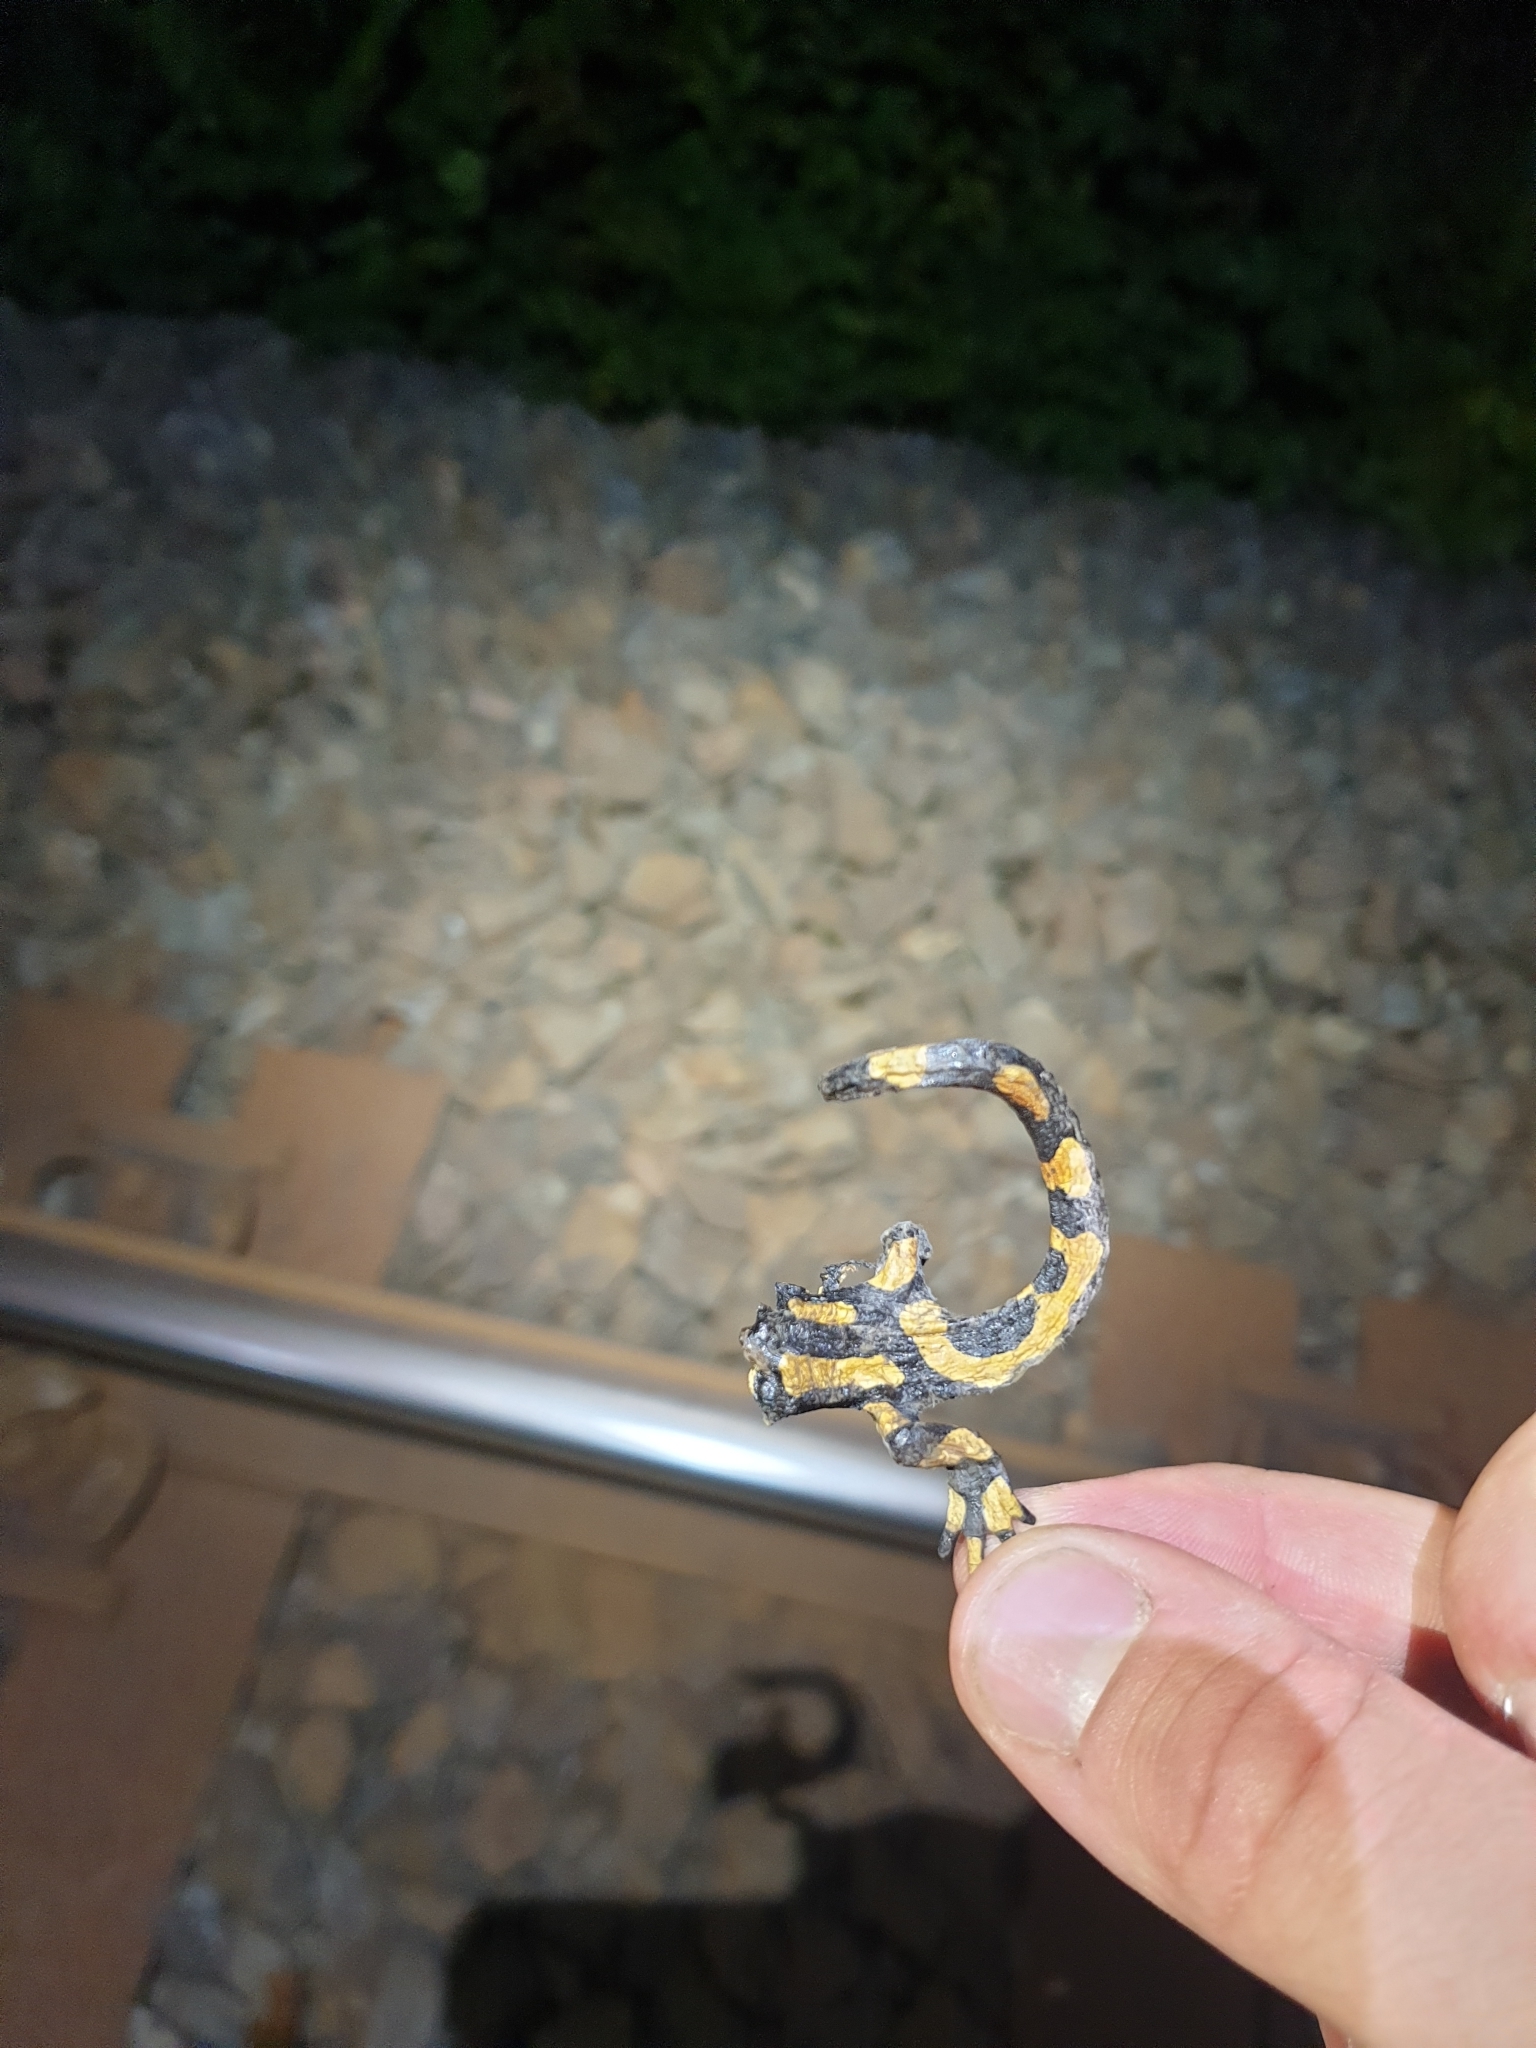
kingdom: Animalia
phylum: Chordata
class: Amphibia
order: Caudata
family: Salamandridae
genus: Salamandra
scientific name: Salamandra salamandra
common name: Fire salamander
